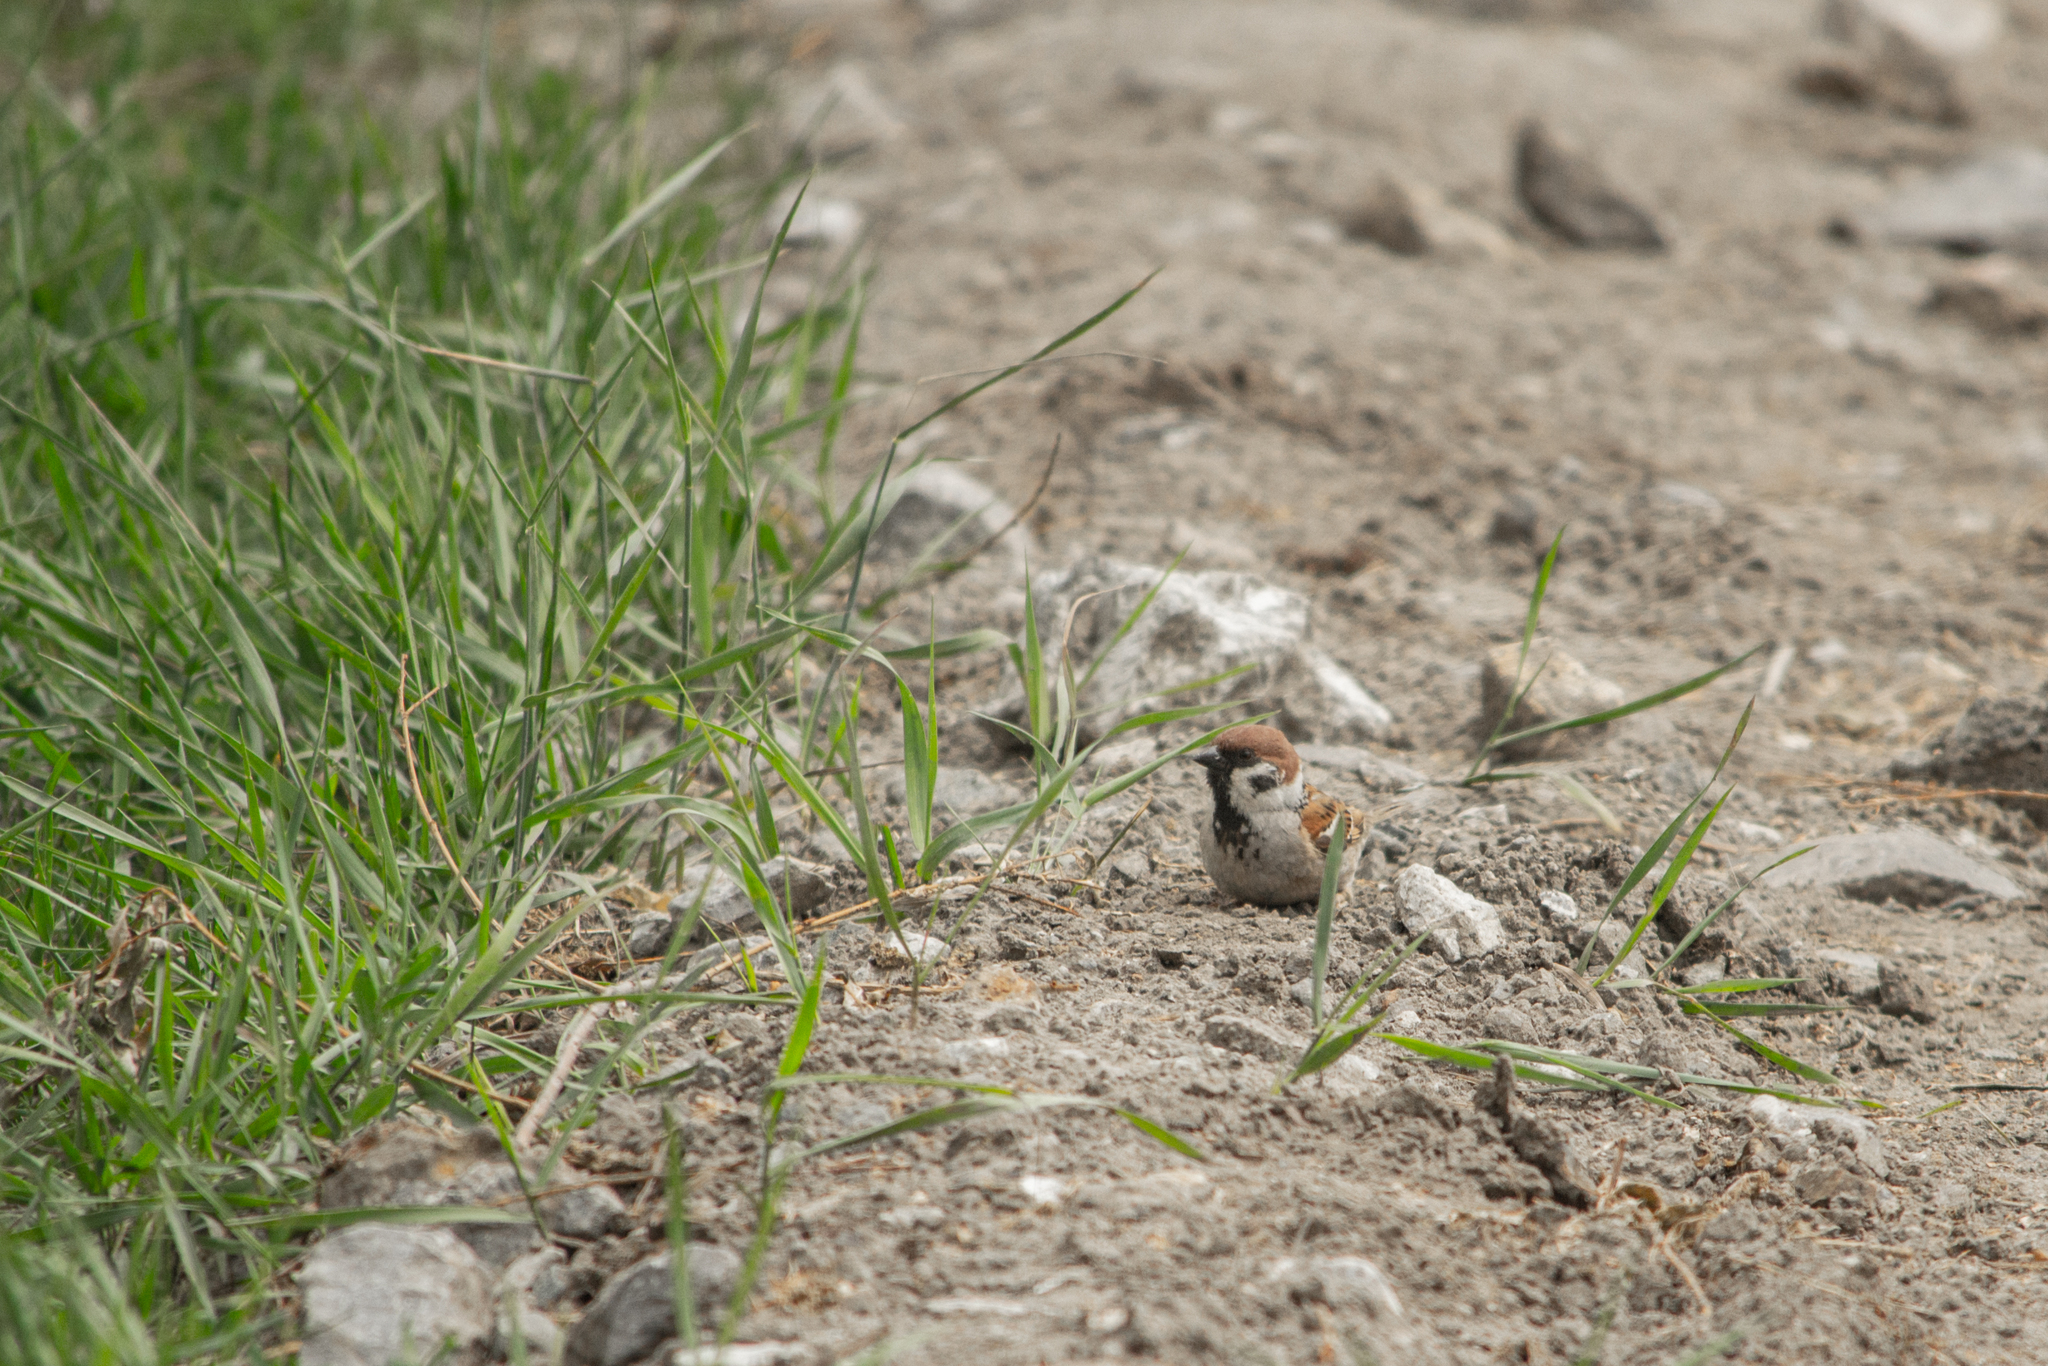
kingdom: Animalia
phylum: Chordata
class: Aves
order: Passeriformes
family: Passeridae
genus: Passer
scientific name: Passer montanus
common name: Eurasian tree sparrow
